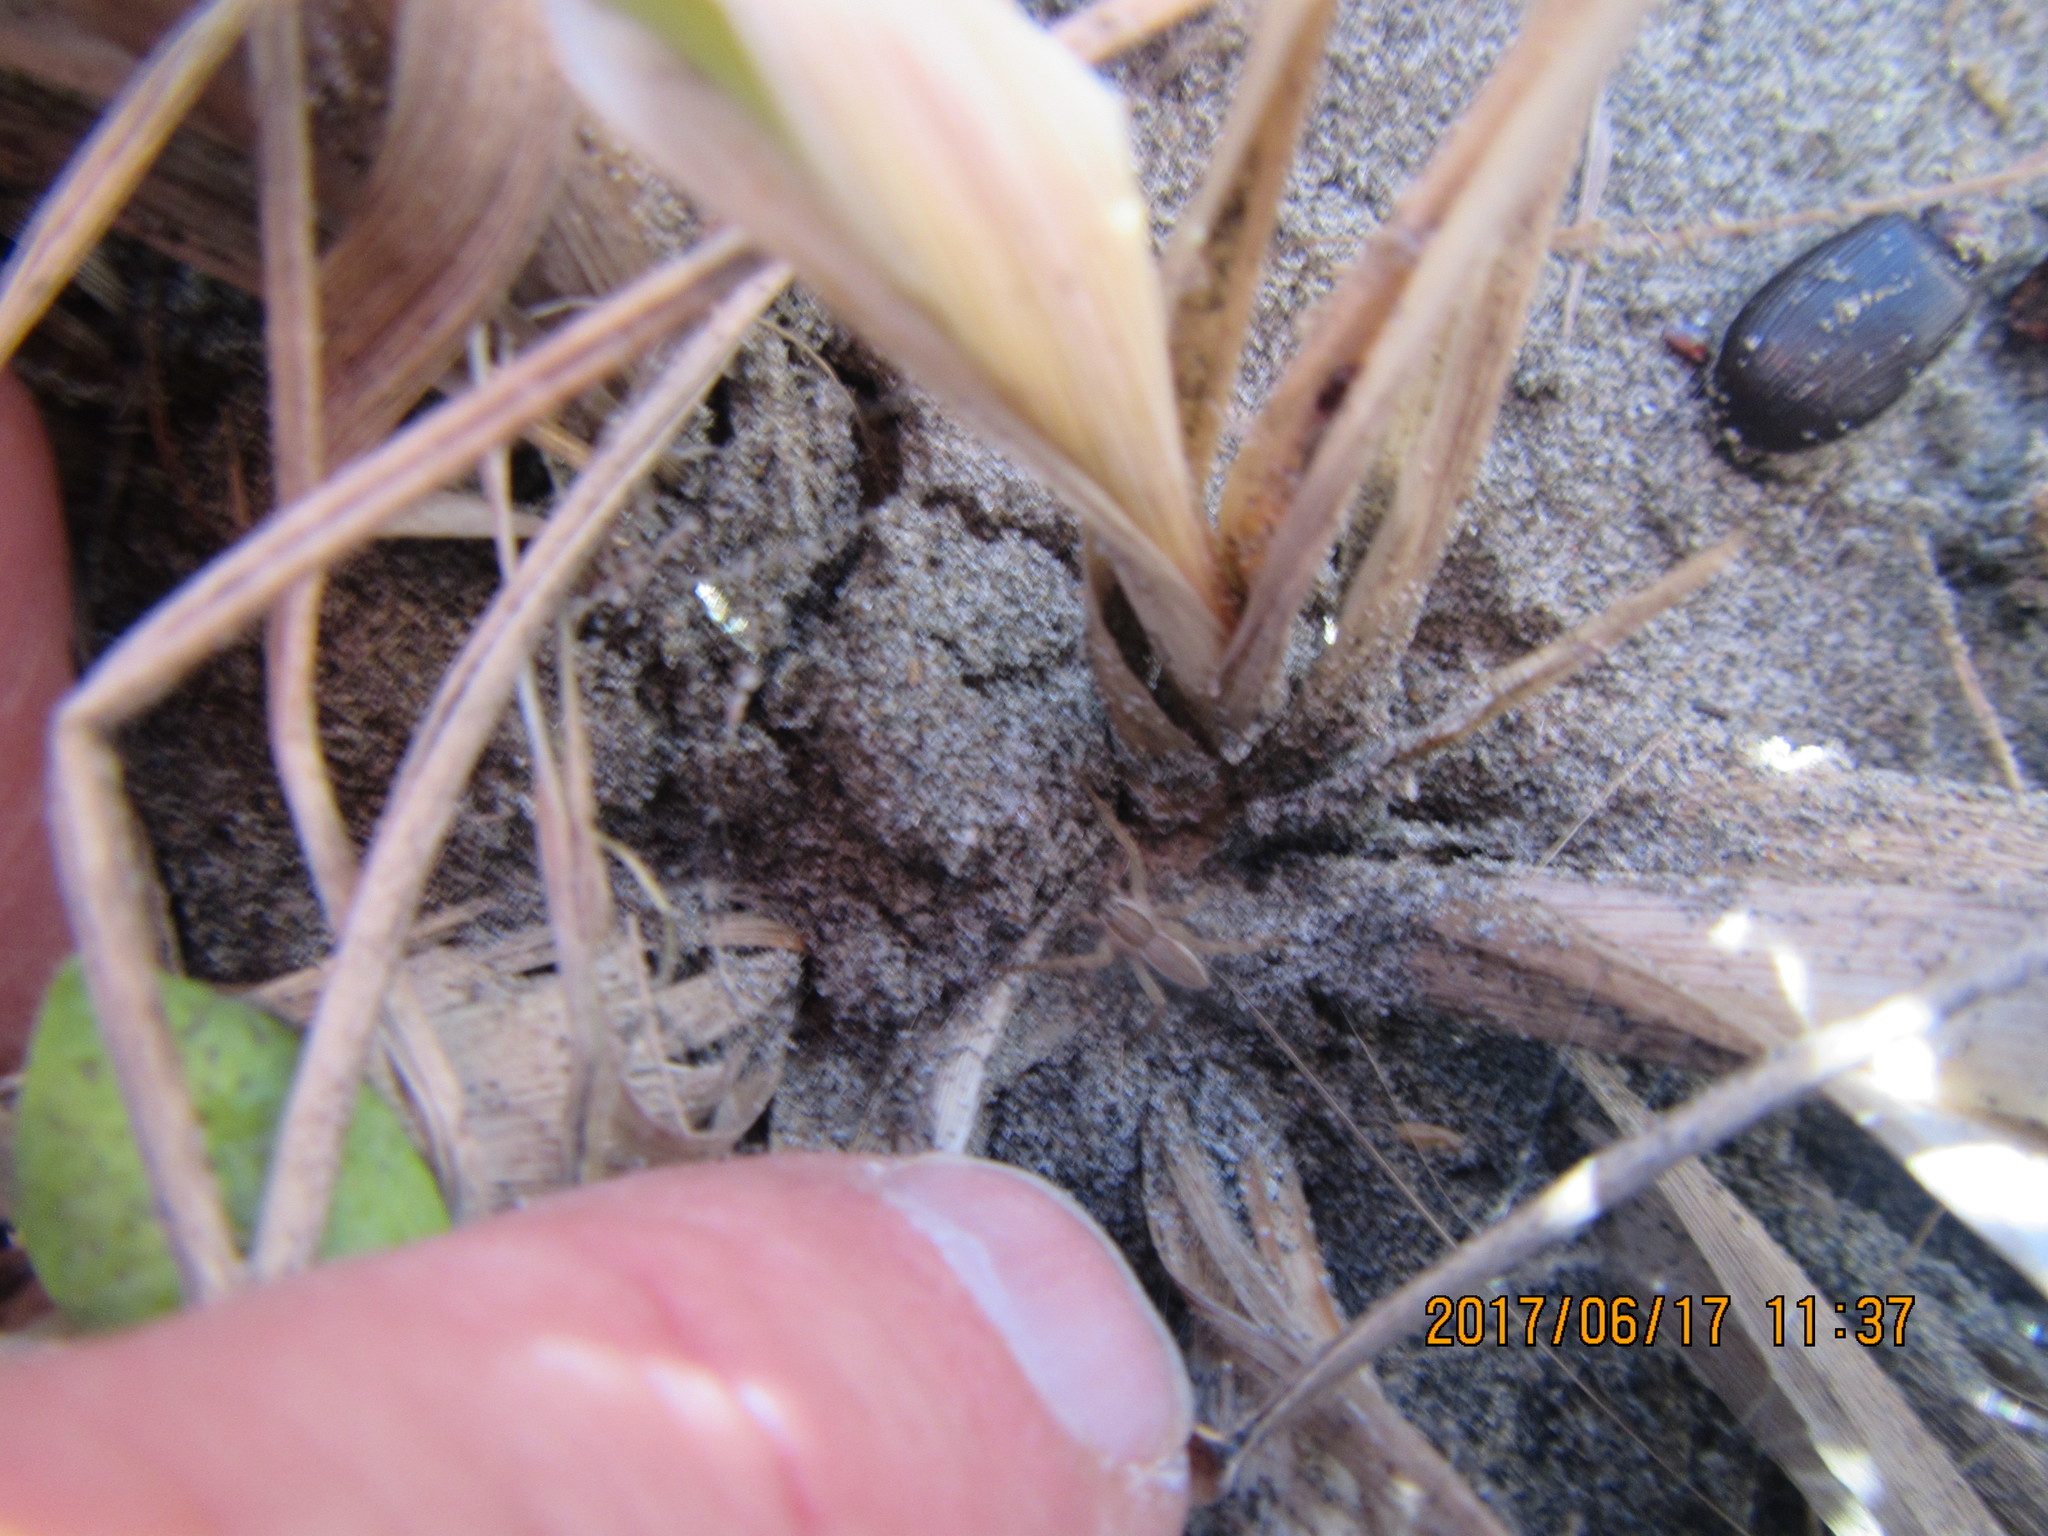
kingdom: Animalia
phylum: Arthropoda
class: Arachnida
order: Araneae
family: Pisauridae
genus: Dolomedes
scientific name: Dolomedes minor
